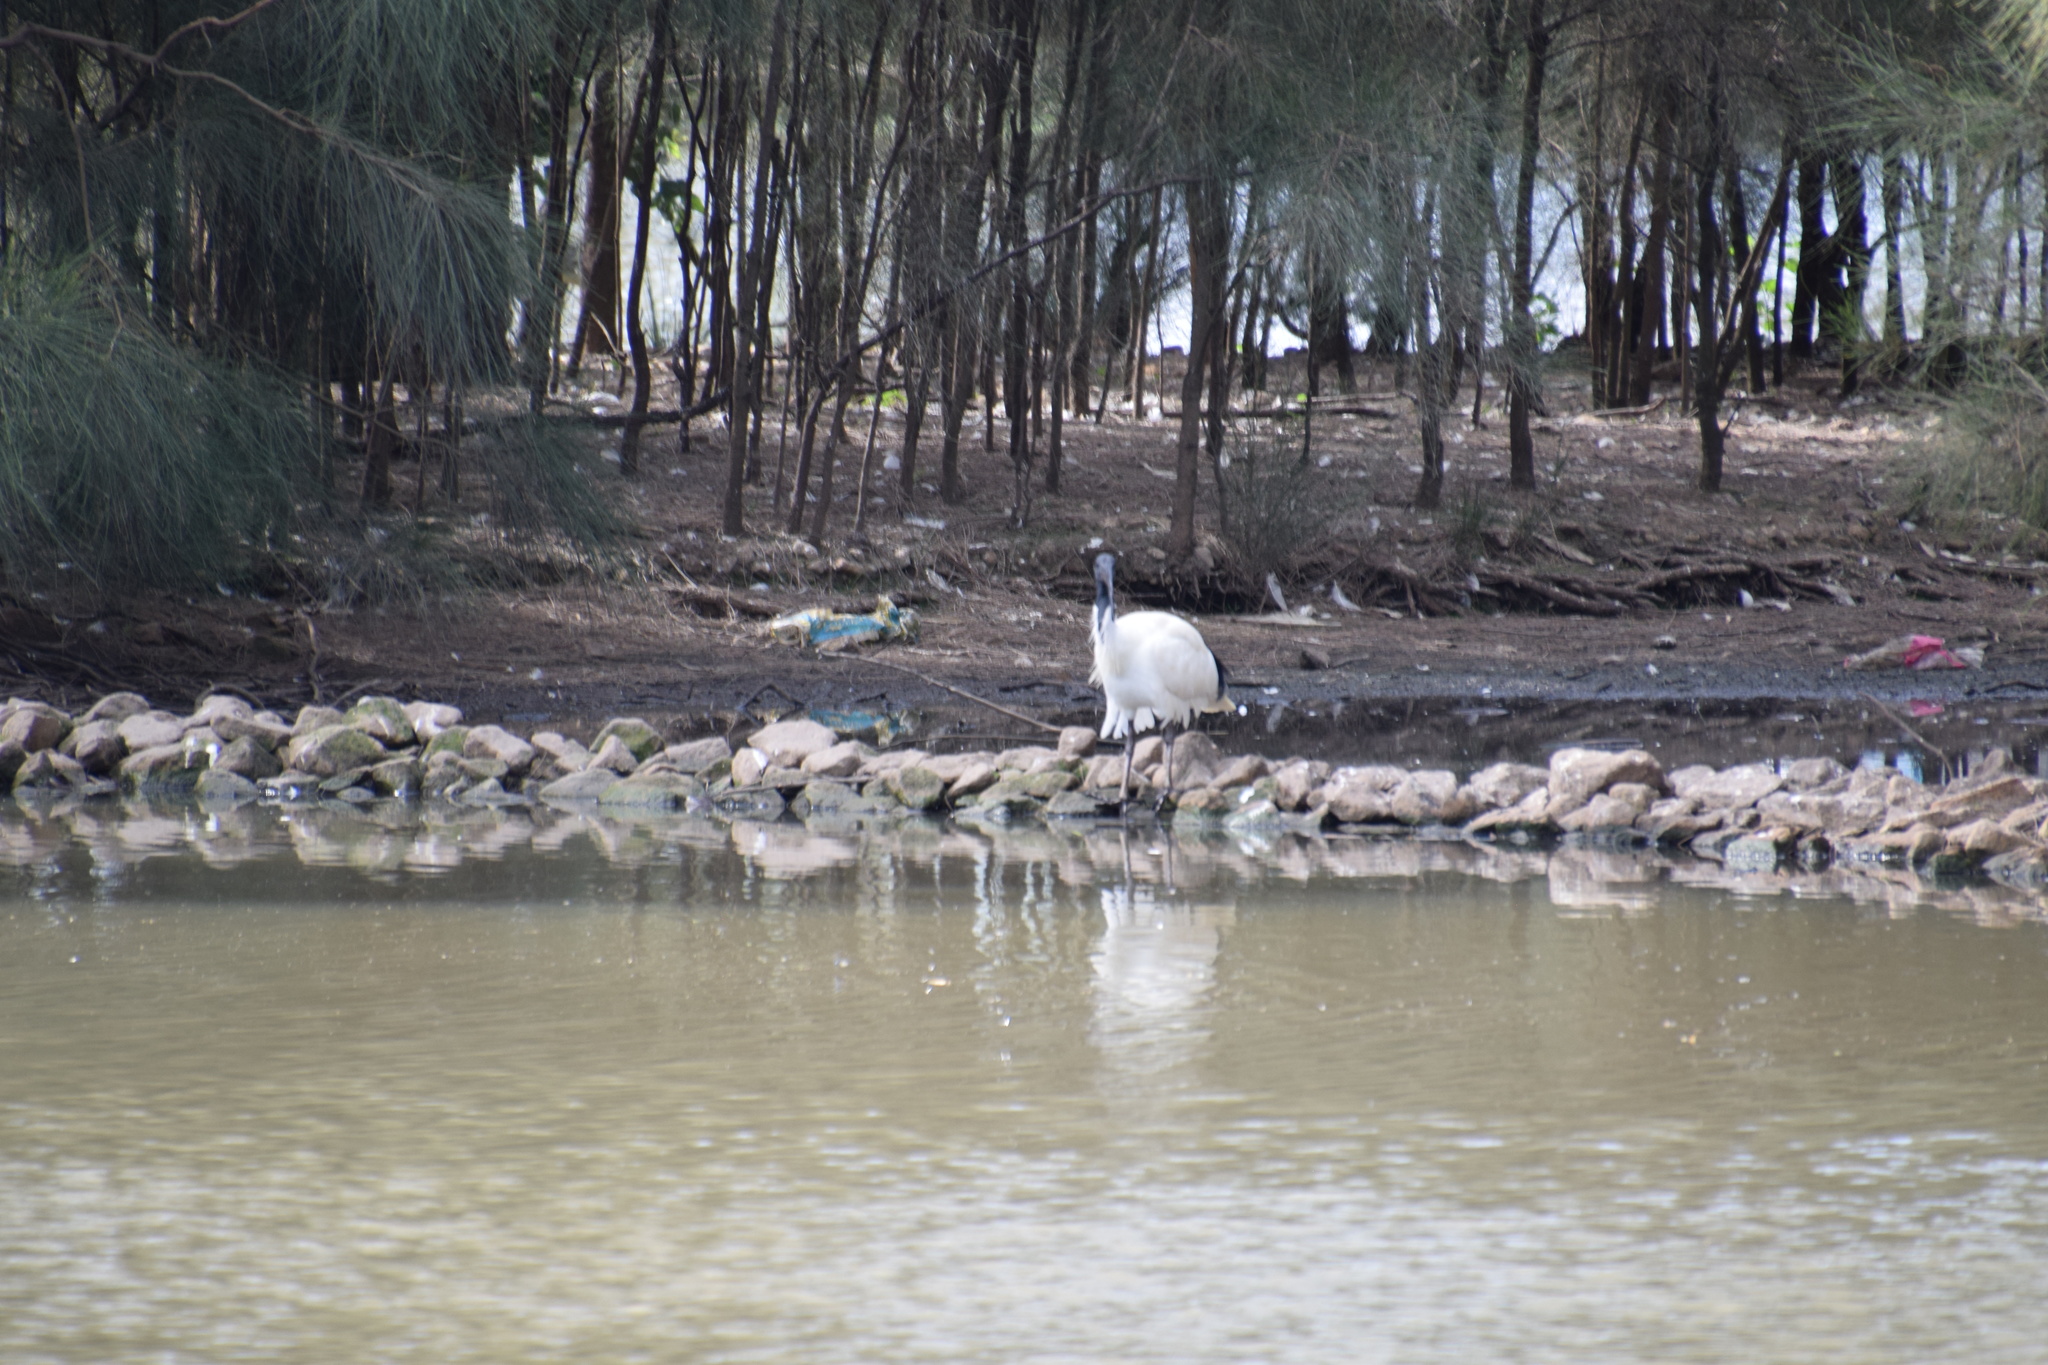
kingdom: Animalia
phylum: Chordata
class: Aves
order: Pelecaniformes
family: Threskiornithidae
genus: Threskiornis
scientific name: Threskiornis molucca
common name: Australian white ibis
